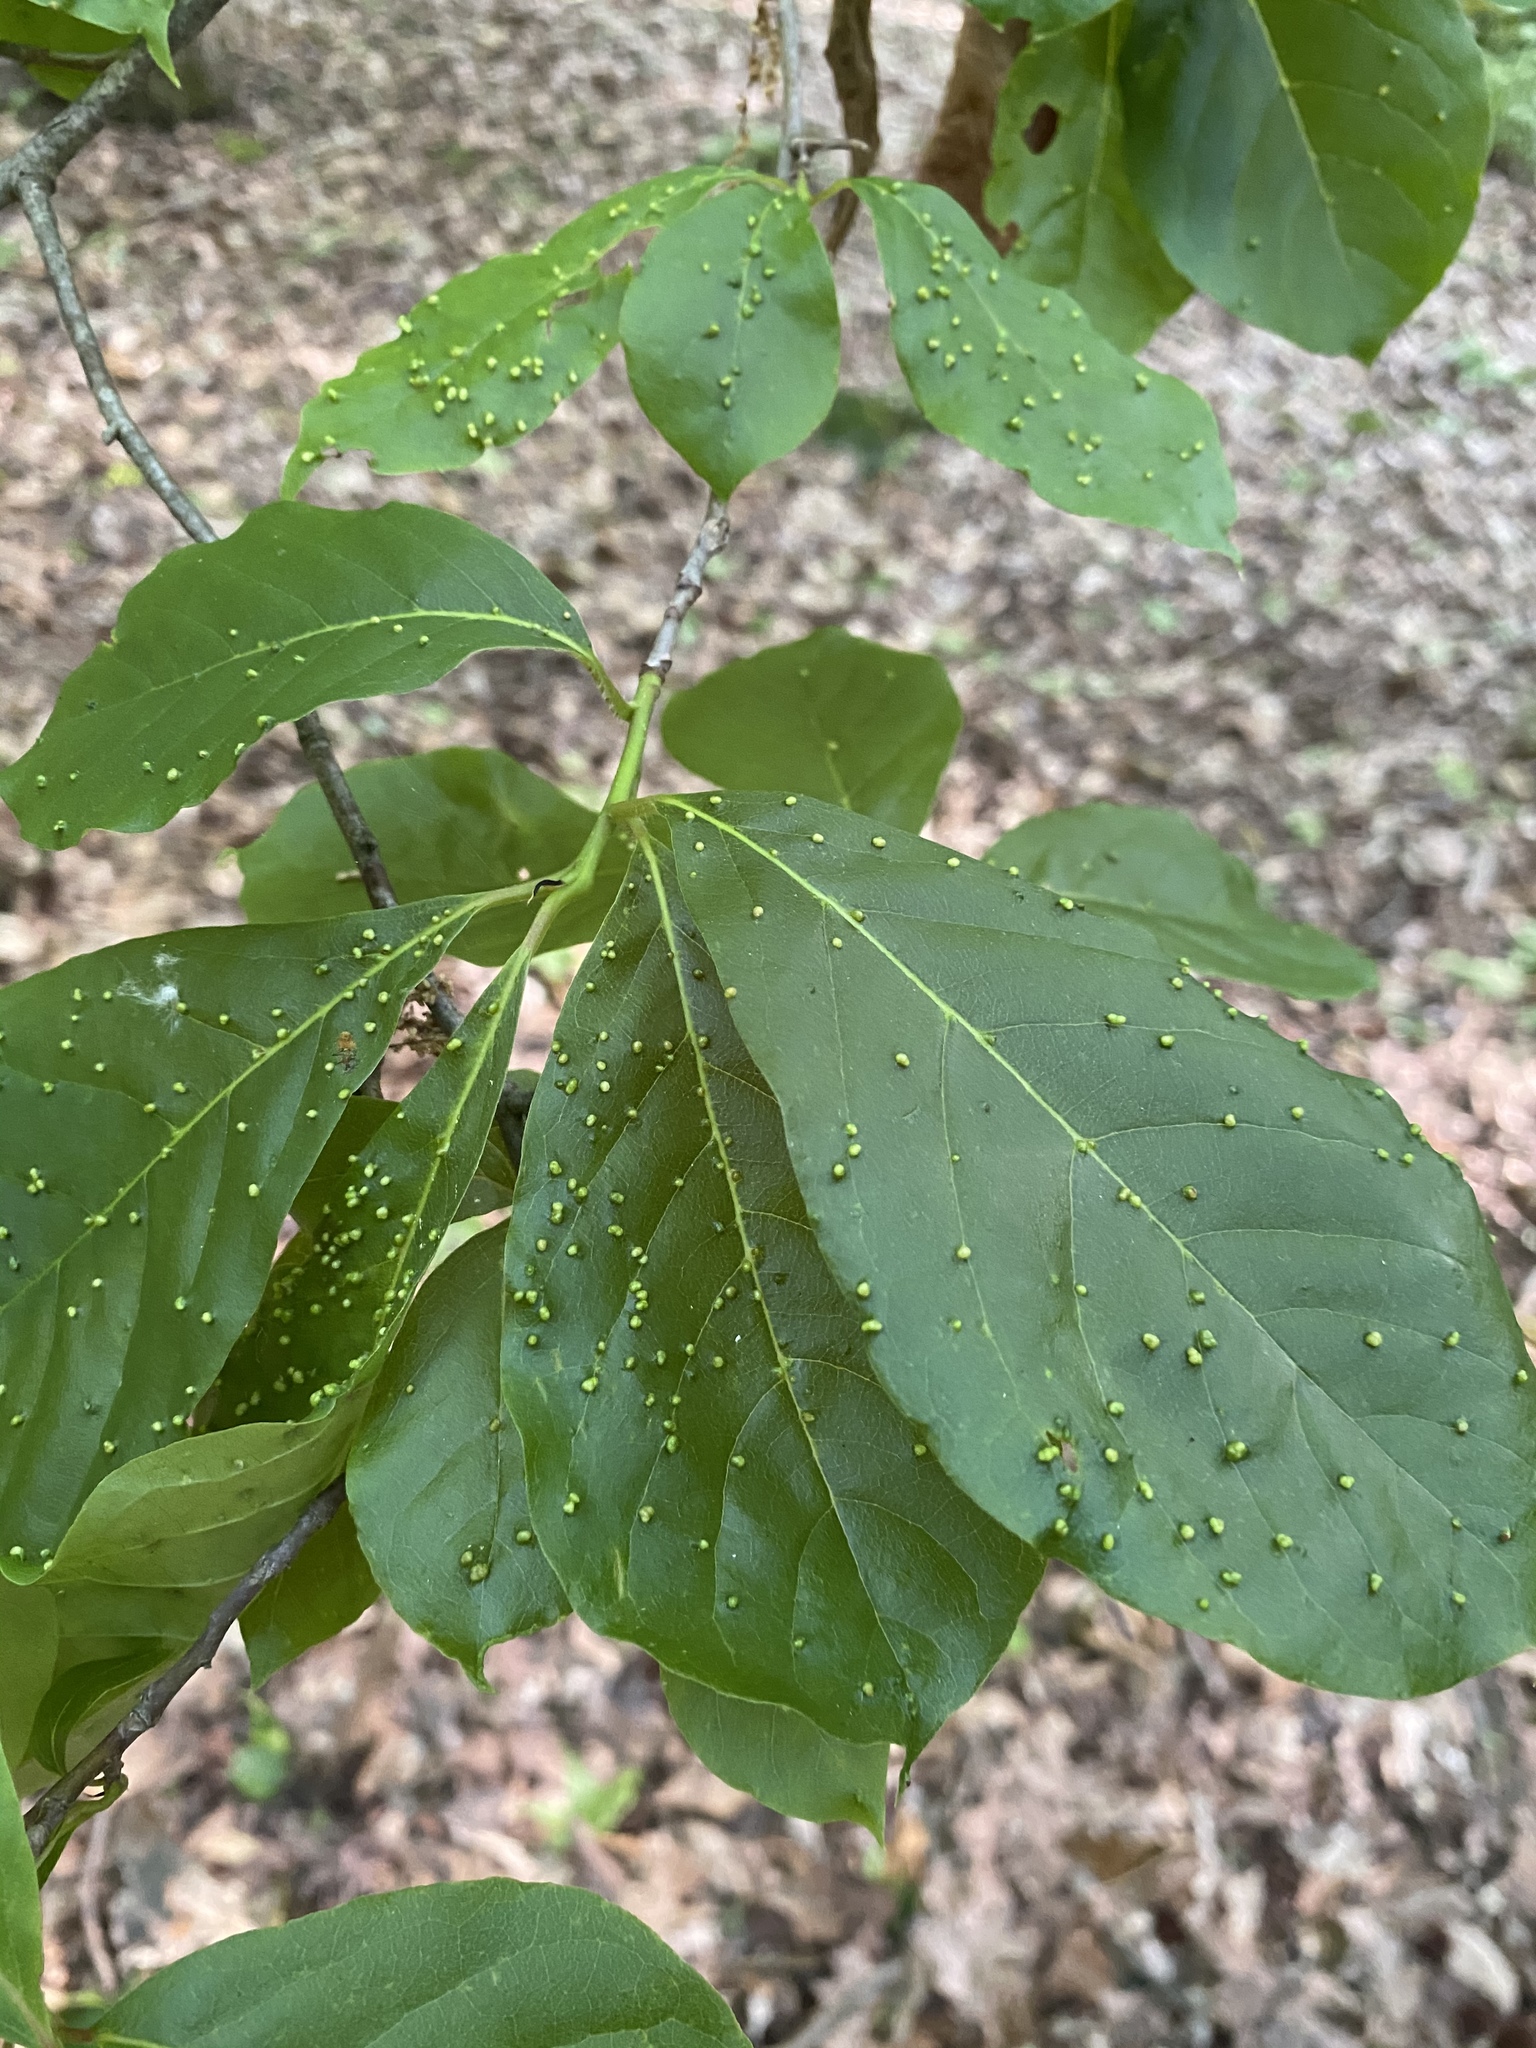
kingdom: Animalia
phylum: Arthropoda
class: Arachnida
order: Trombidiformes
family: Eriophyidae
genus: Aceria
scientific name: Aceria
